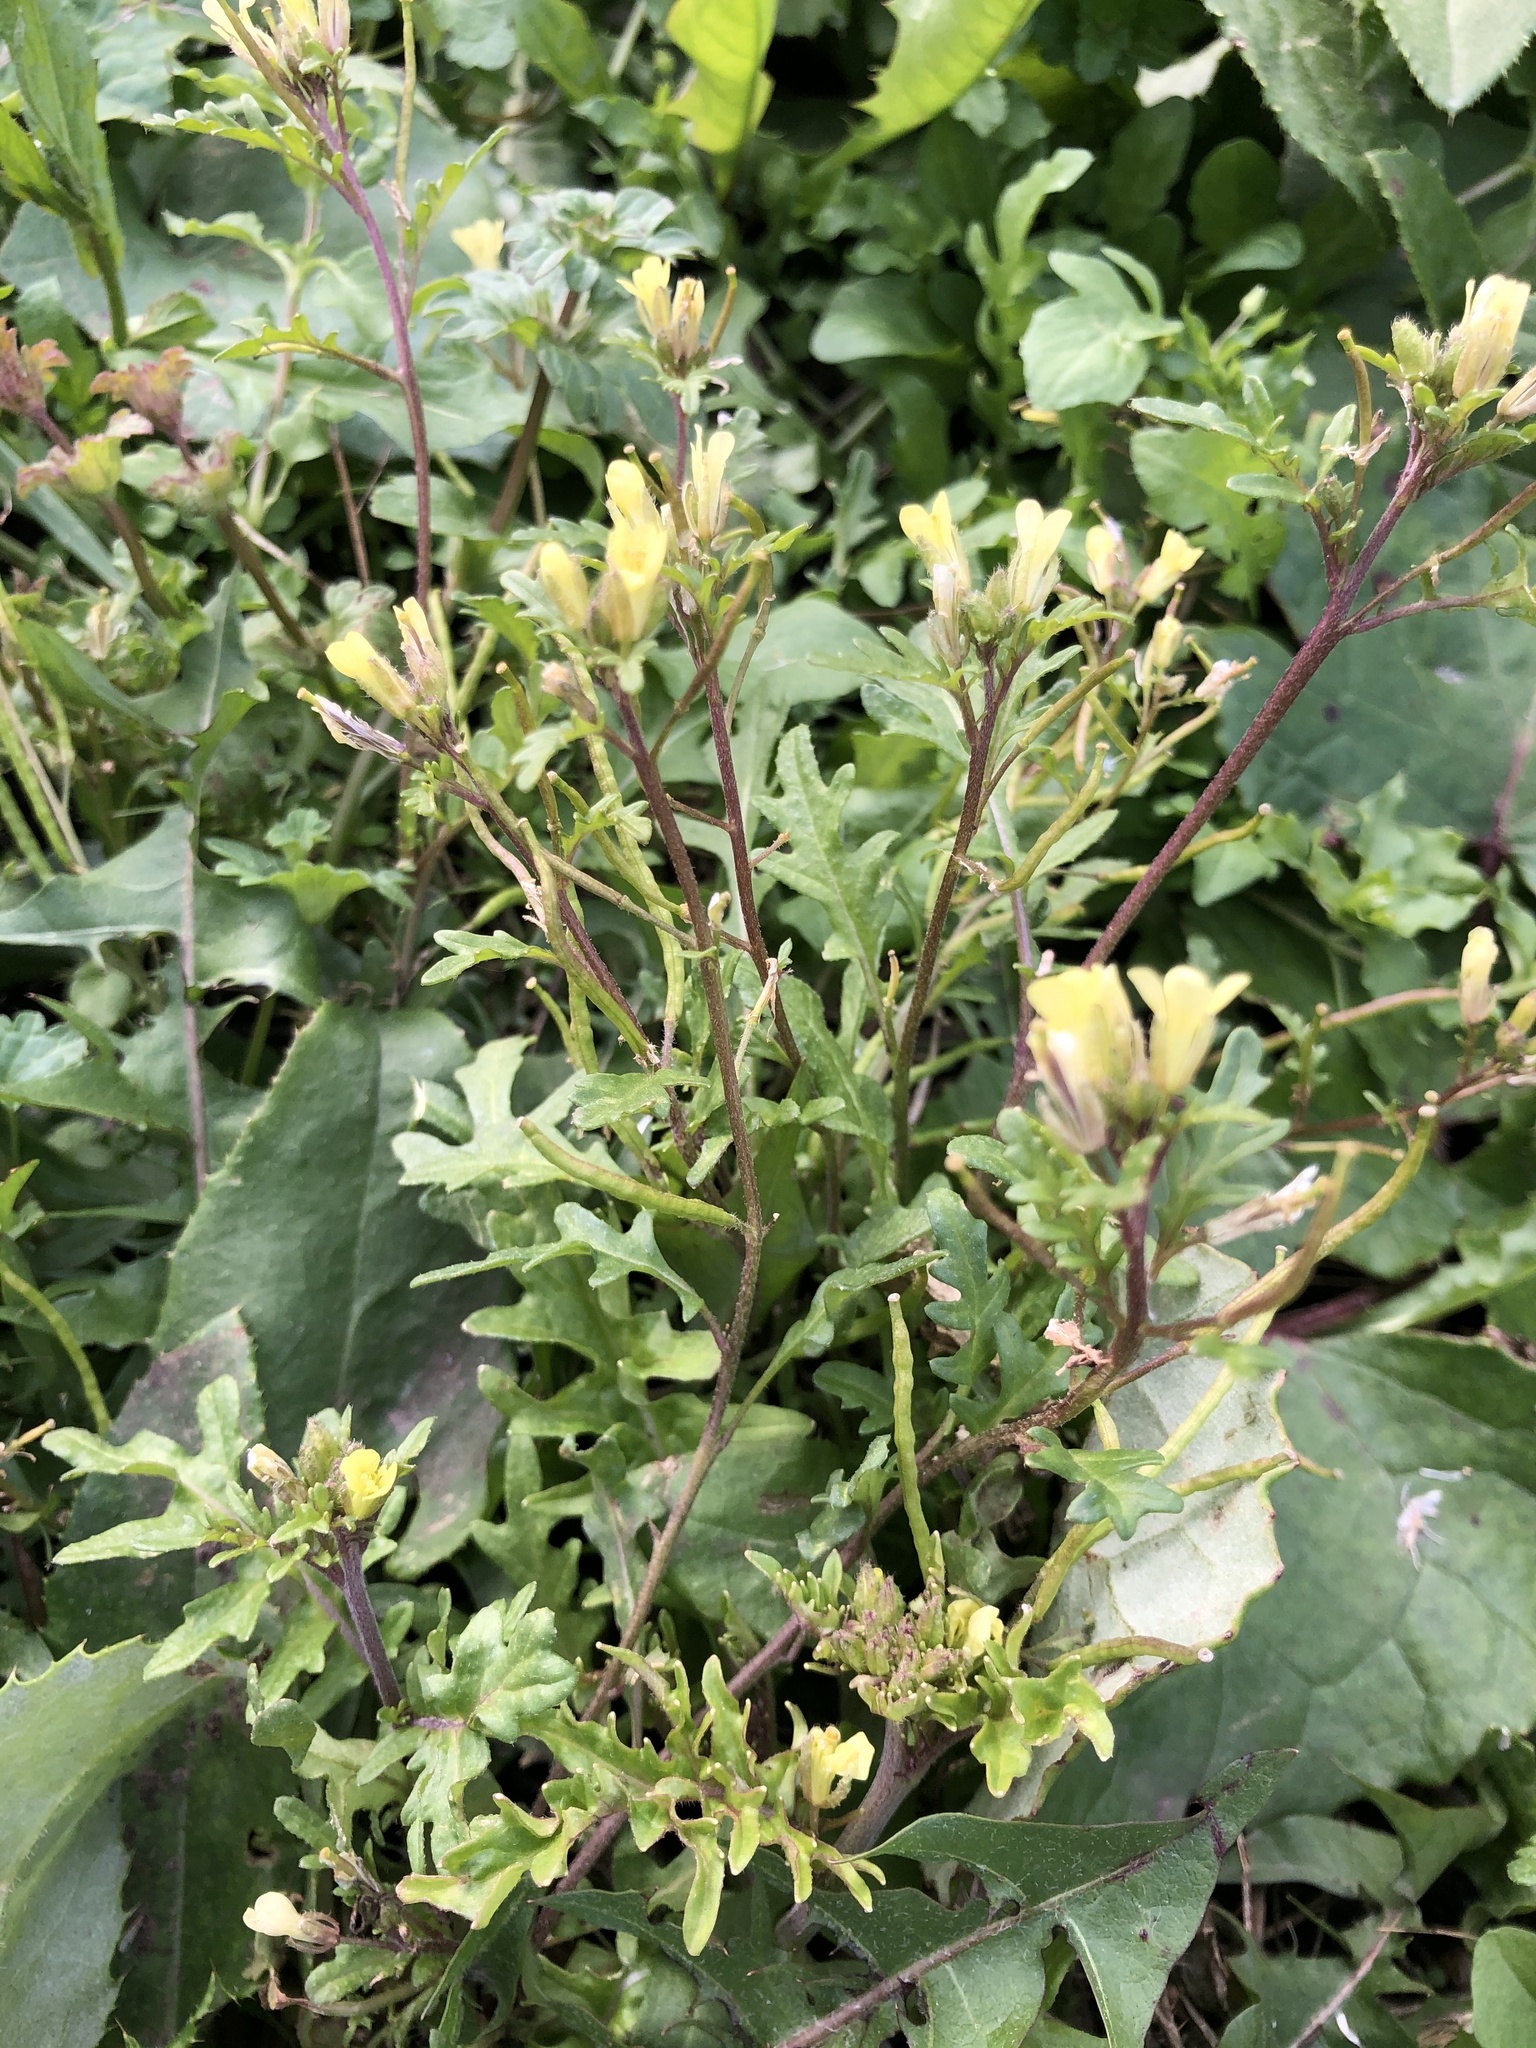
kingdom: Plantae
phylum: Tracheophyta
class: Magnoliopsida
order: Brassicales
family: Brassicaceae
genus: Erucastrum
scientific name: Erucastrum gallicum
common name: Hairy rocket
